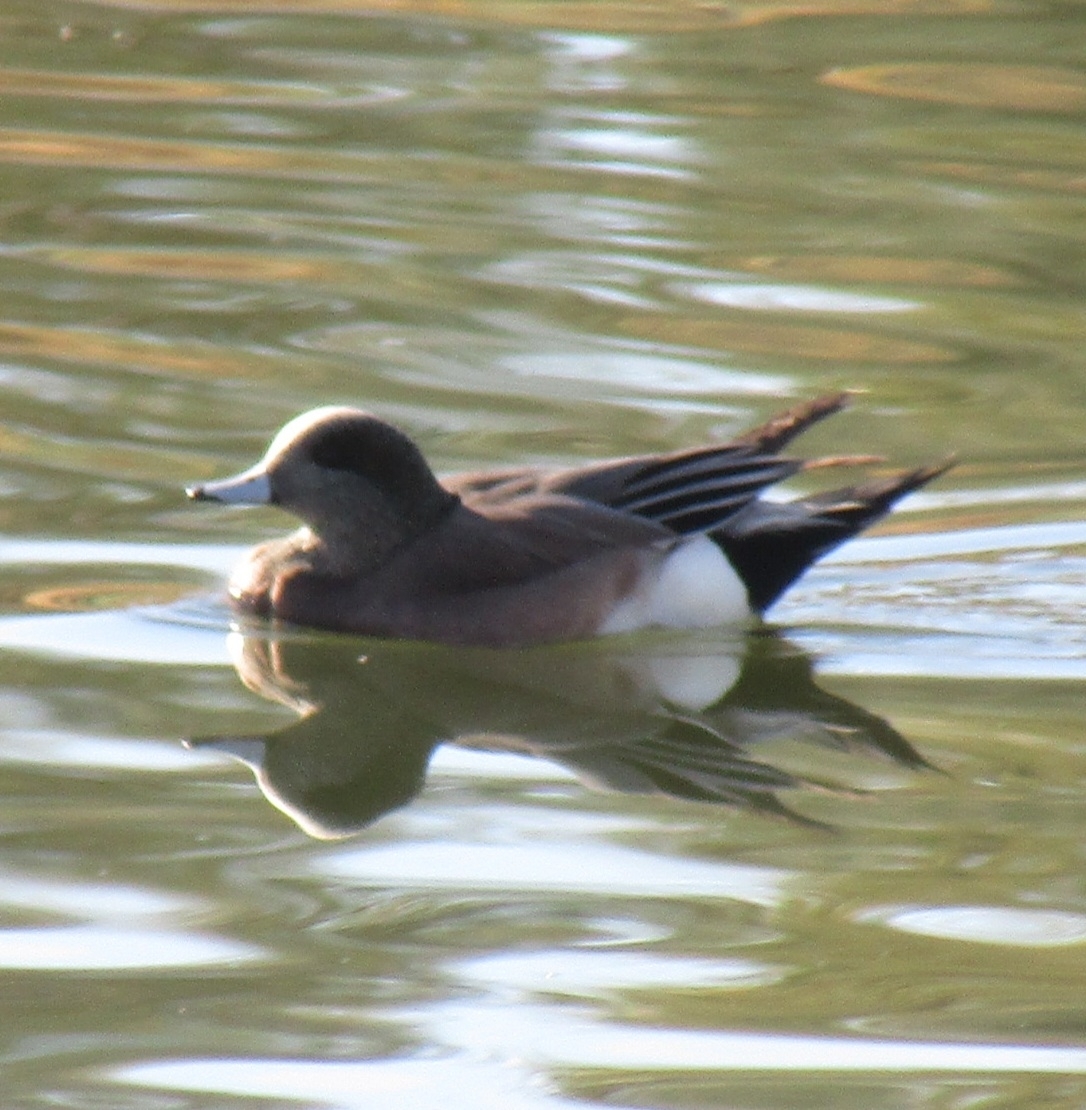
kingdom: Animalia
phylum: Chordata
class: Aves
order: Anseriformes
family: Anatidae
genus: Mareca
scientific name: Mareca americana
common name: American wigeon
